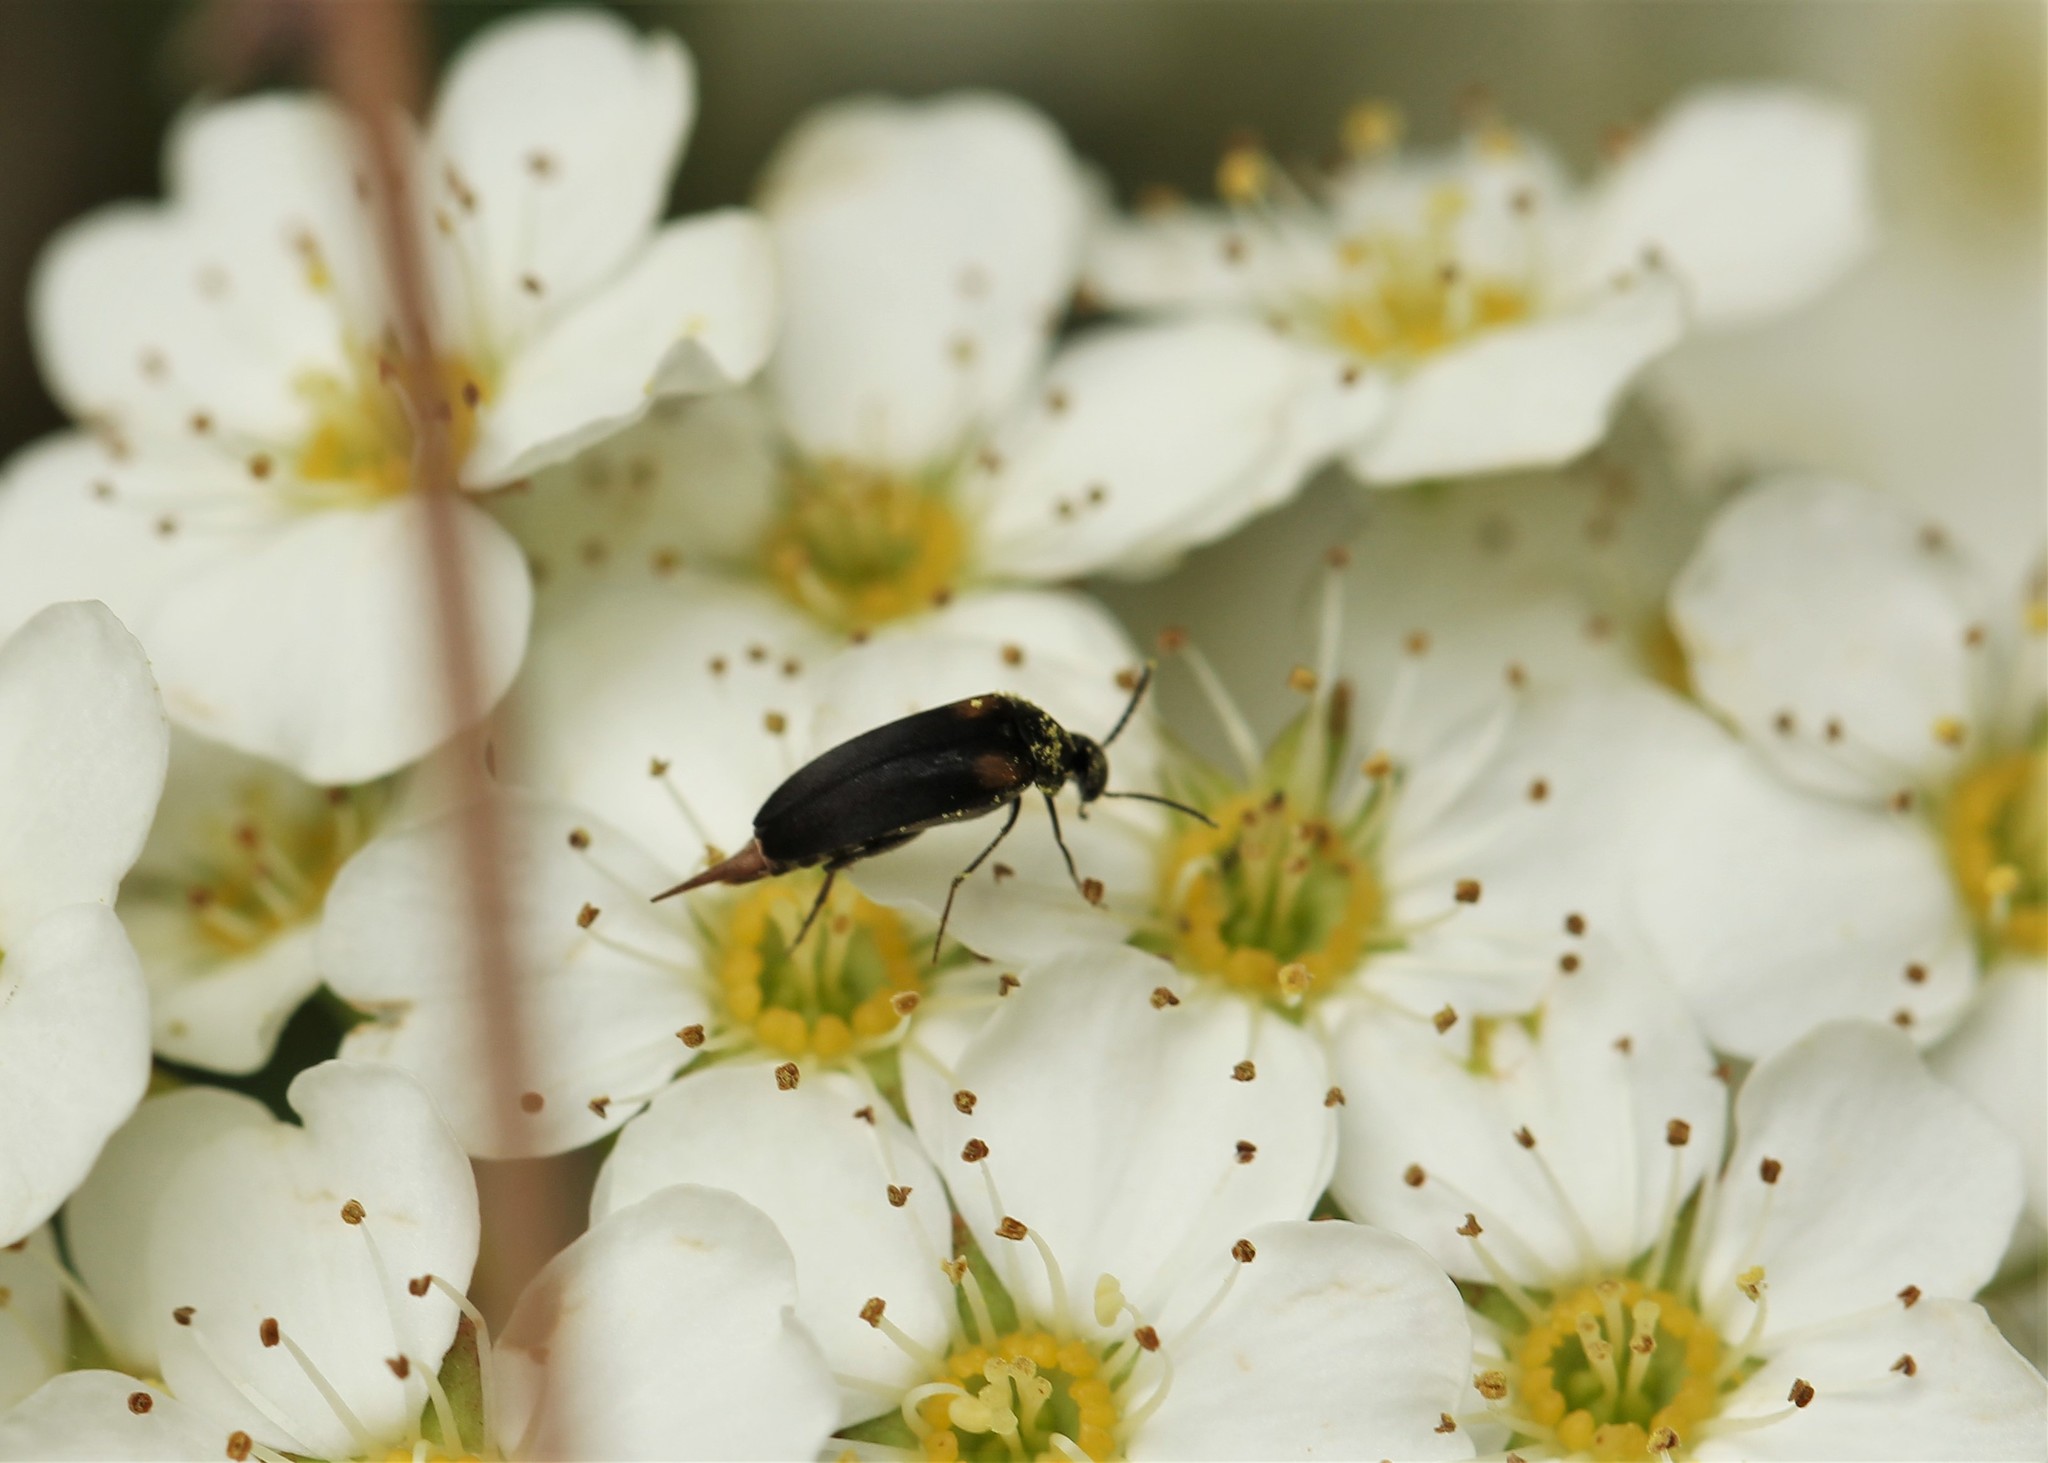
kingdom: Animalia
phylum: Arthropoda
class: Insecta
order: Coleoptera
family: Mordellidae
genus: Mordellochroa
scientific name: Mordellochroa scapularis
